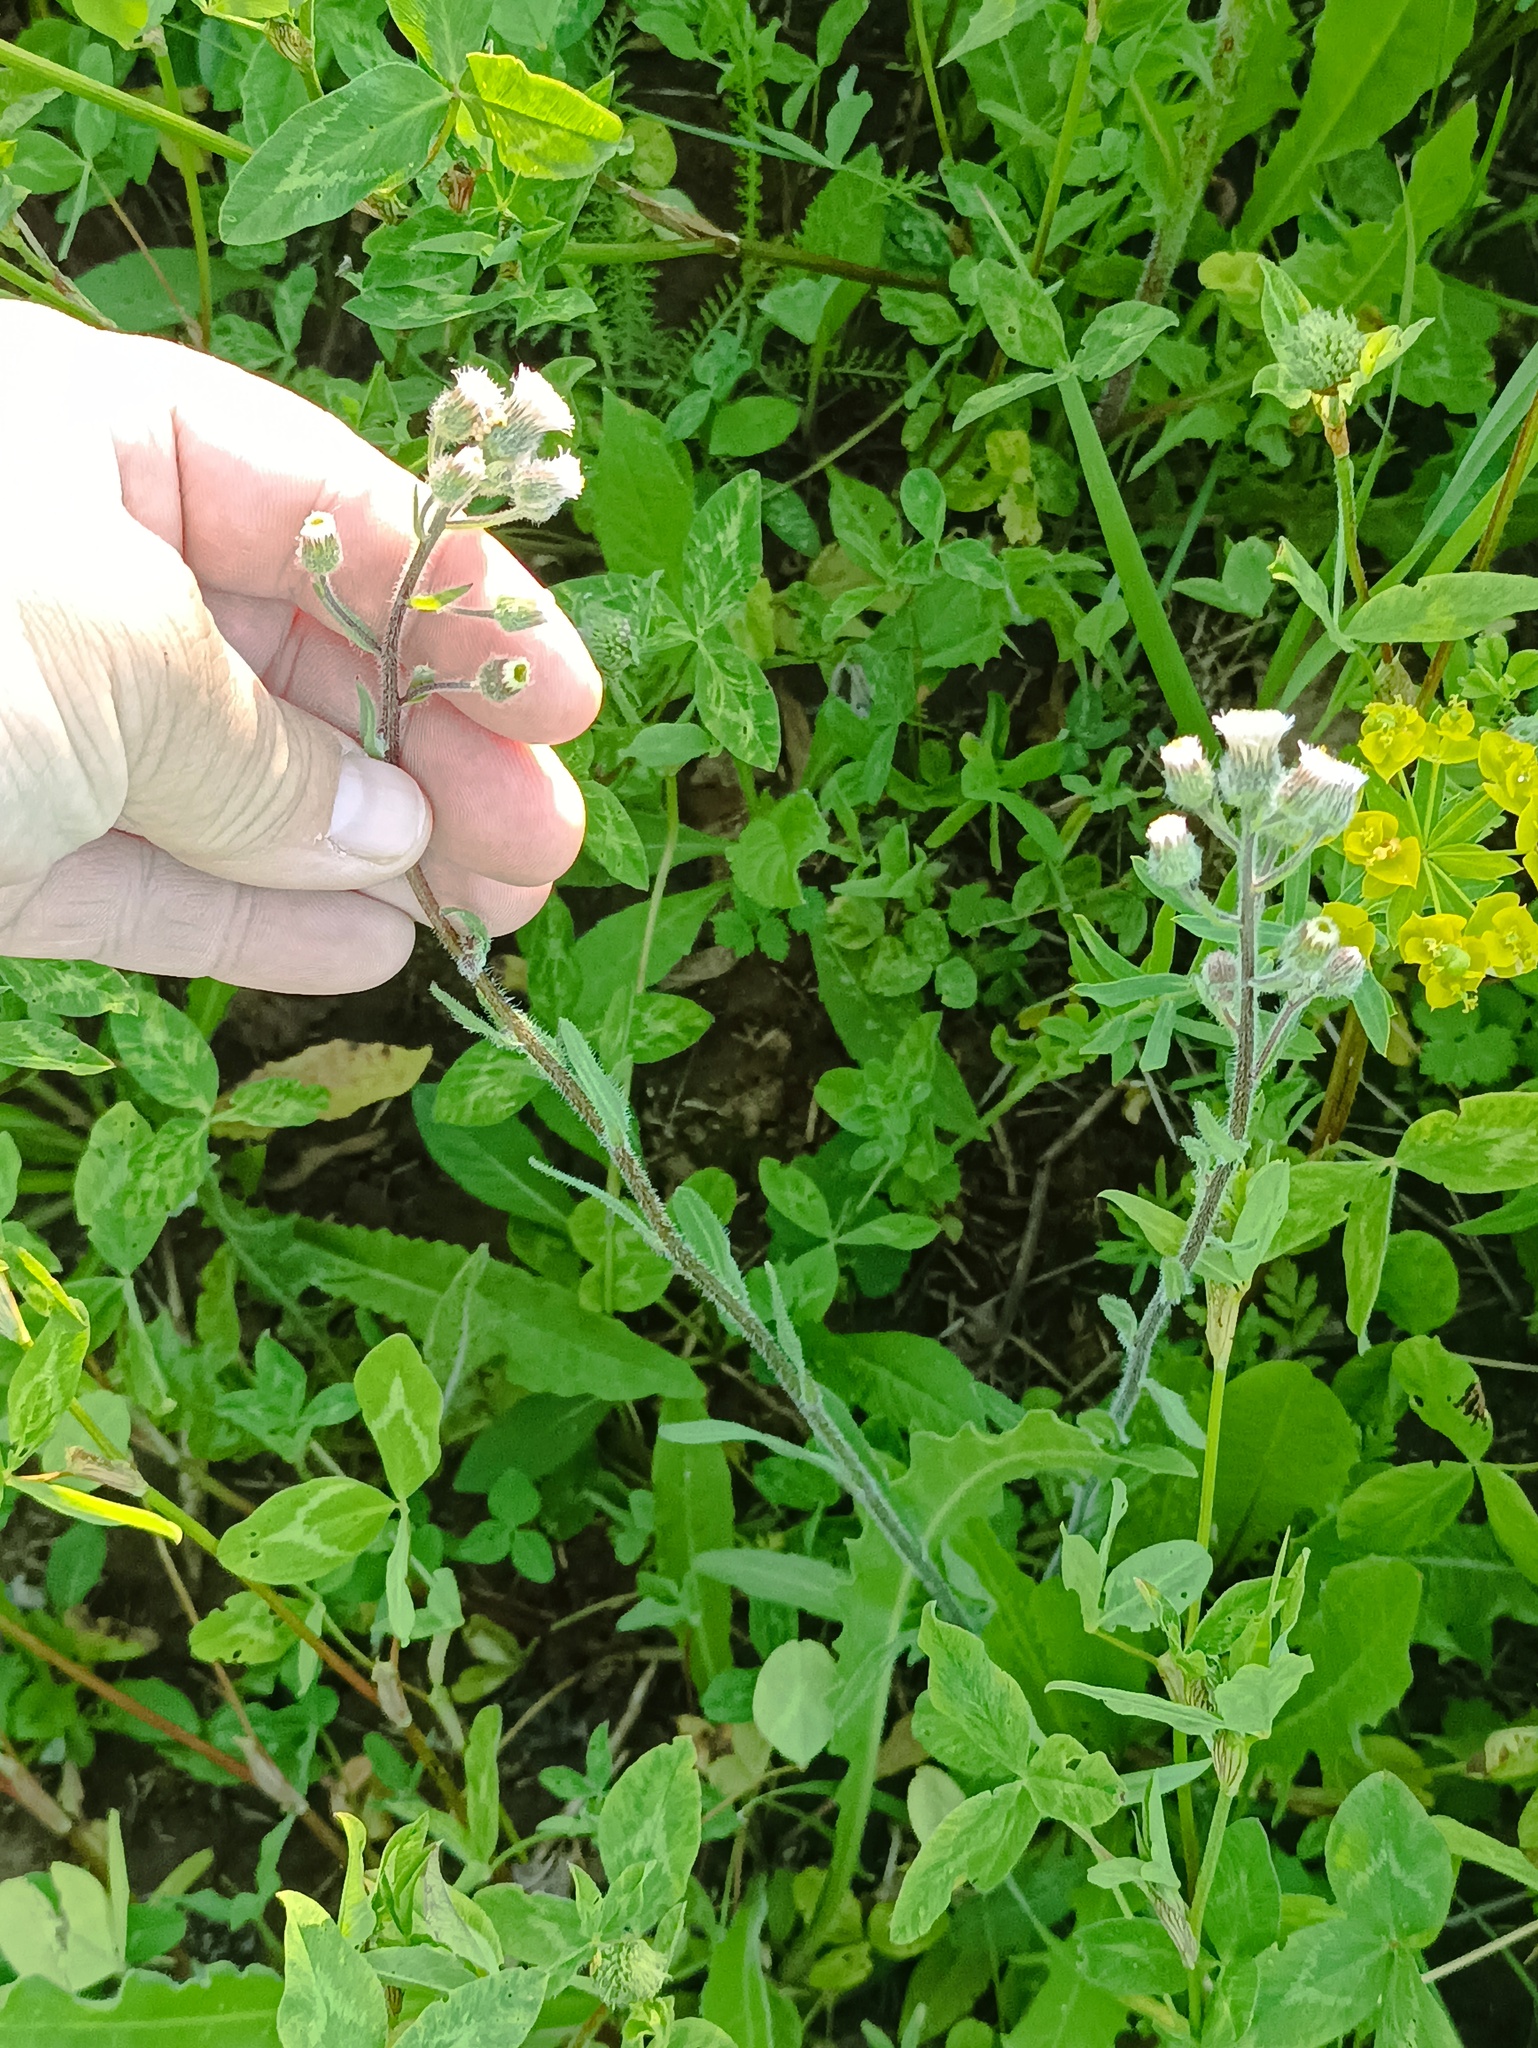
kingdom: Plantae
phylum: Tracheophyta
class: Magnoliopsida
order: Asterales
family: Asteraceae
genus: Erigeron
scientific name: Erigeron acris
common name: Blue fleabane
